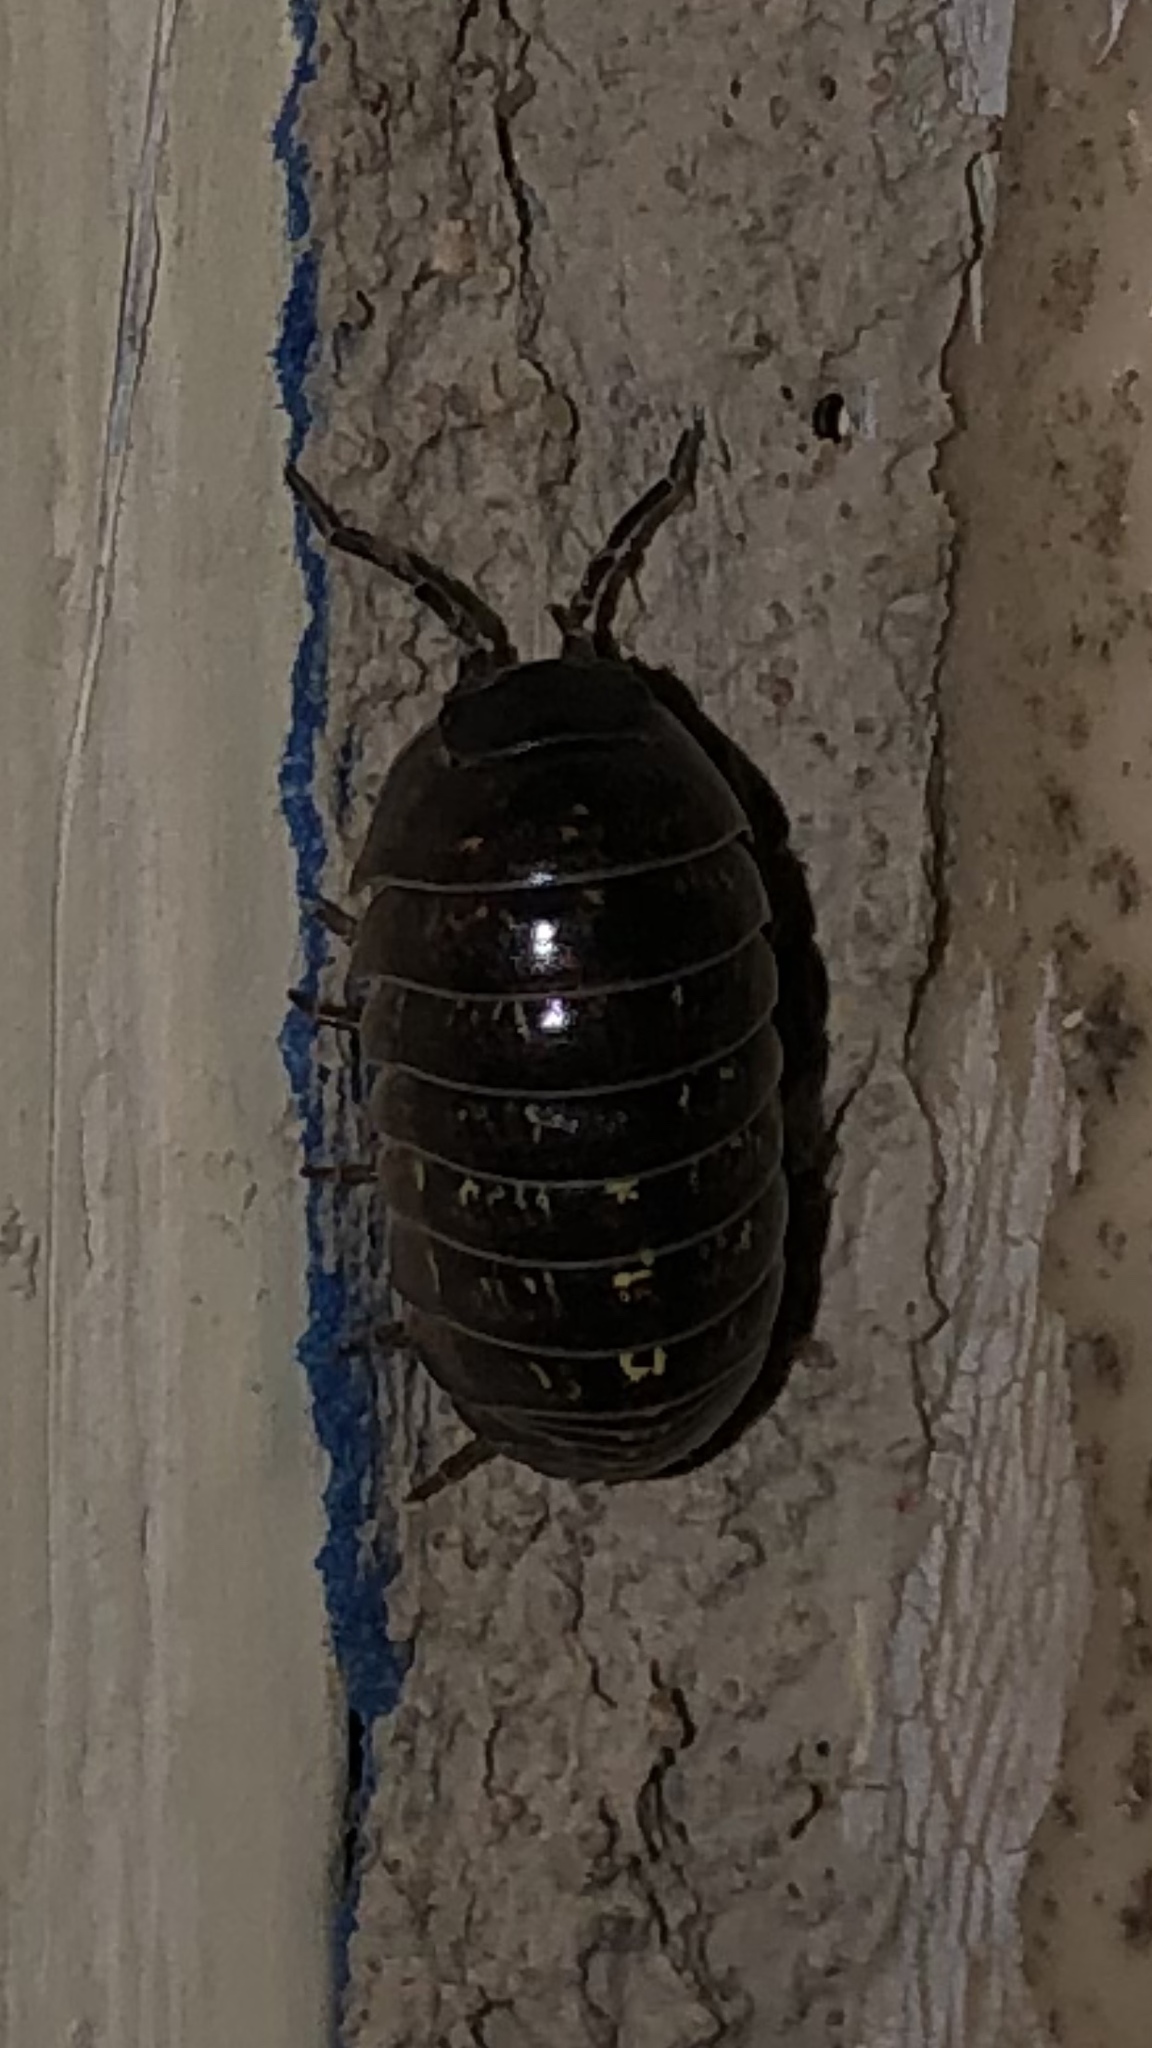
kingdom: Animalia
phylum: Arthropoda
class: Malacostraca
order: Isopoda
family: Armadillidiidae
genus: Armadillidium
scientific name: Armadillidium vulgare
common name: Common pill woodlouse
